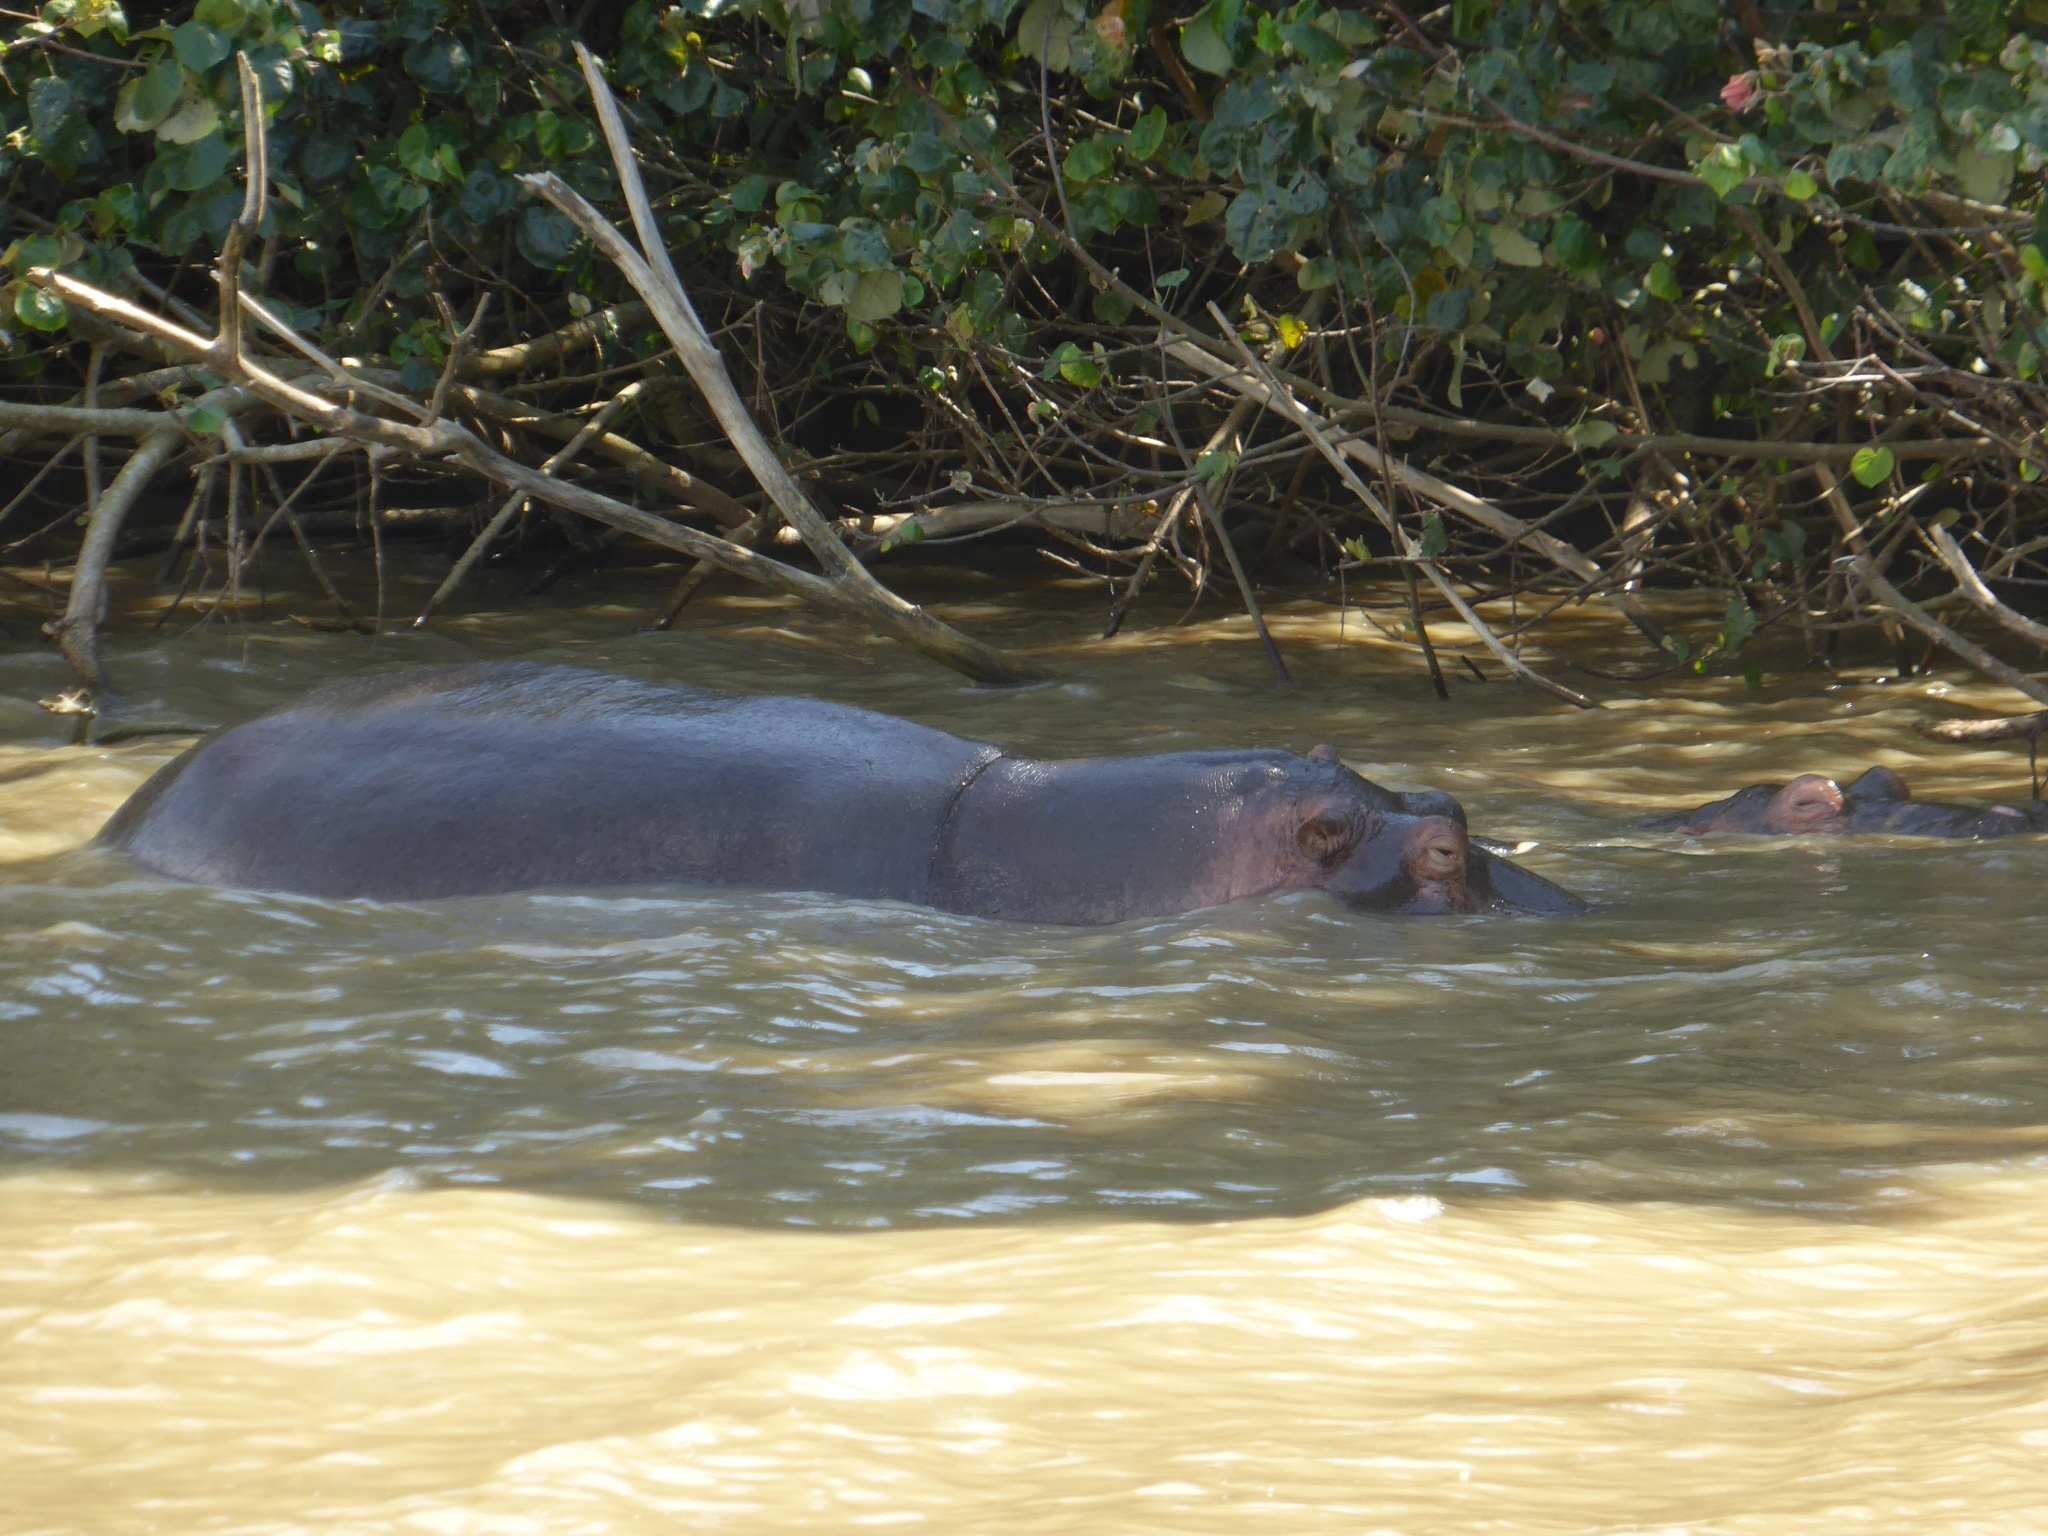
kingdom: Animalia
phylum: Chordata
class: Mammalia
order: Artiodactyla
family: Hippopotamidae
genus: Hippopotamus
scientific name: Hippopotamus amphibius
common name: Common hippopotamus
